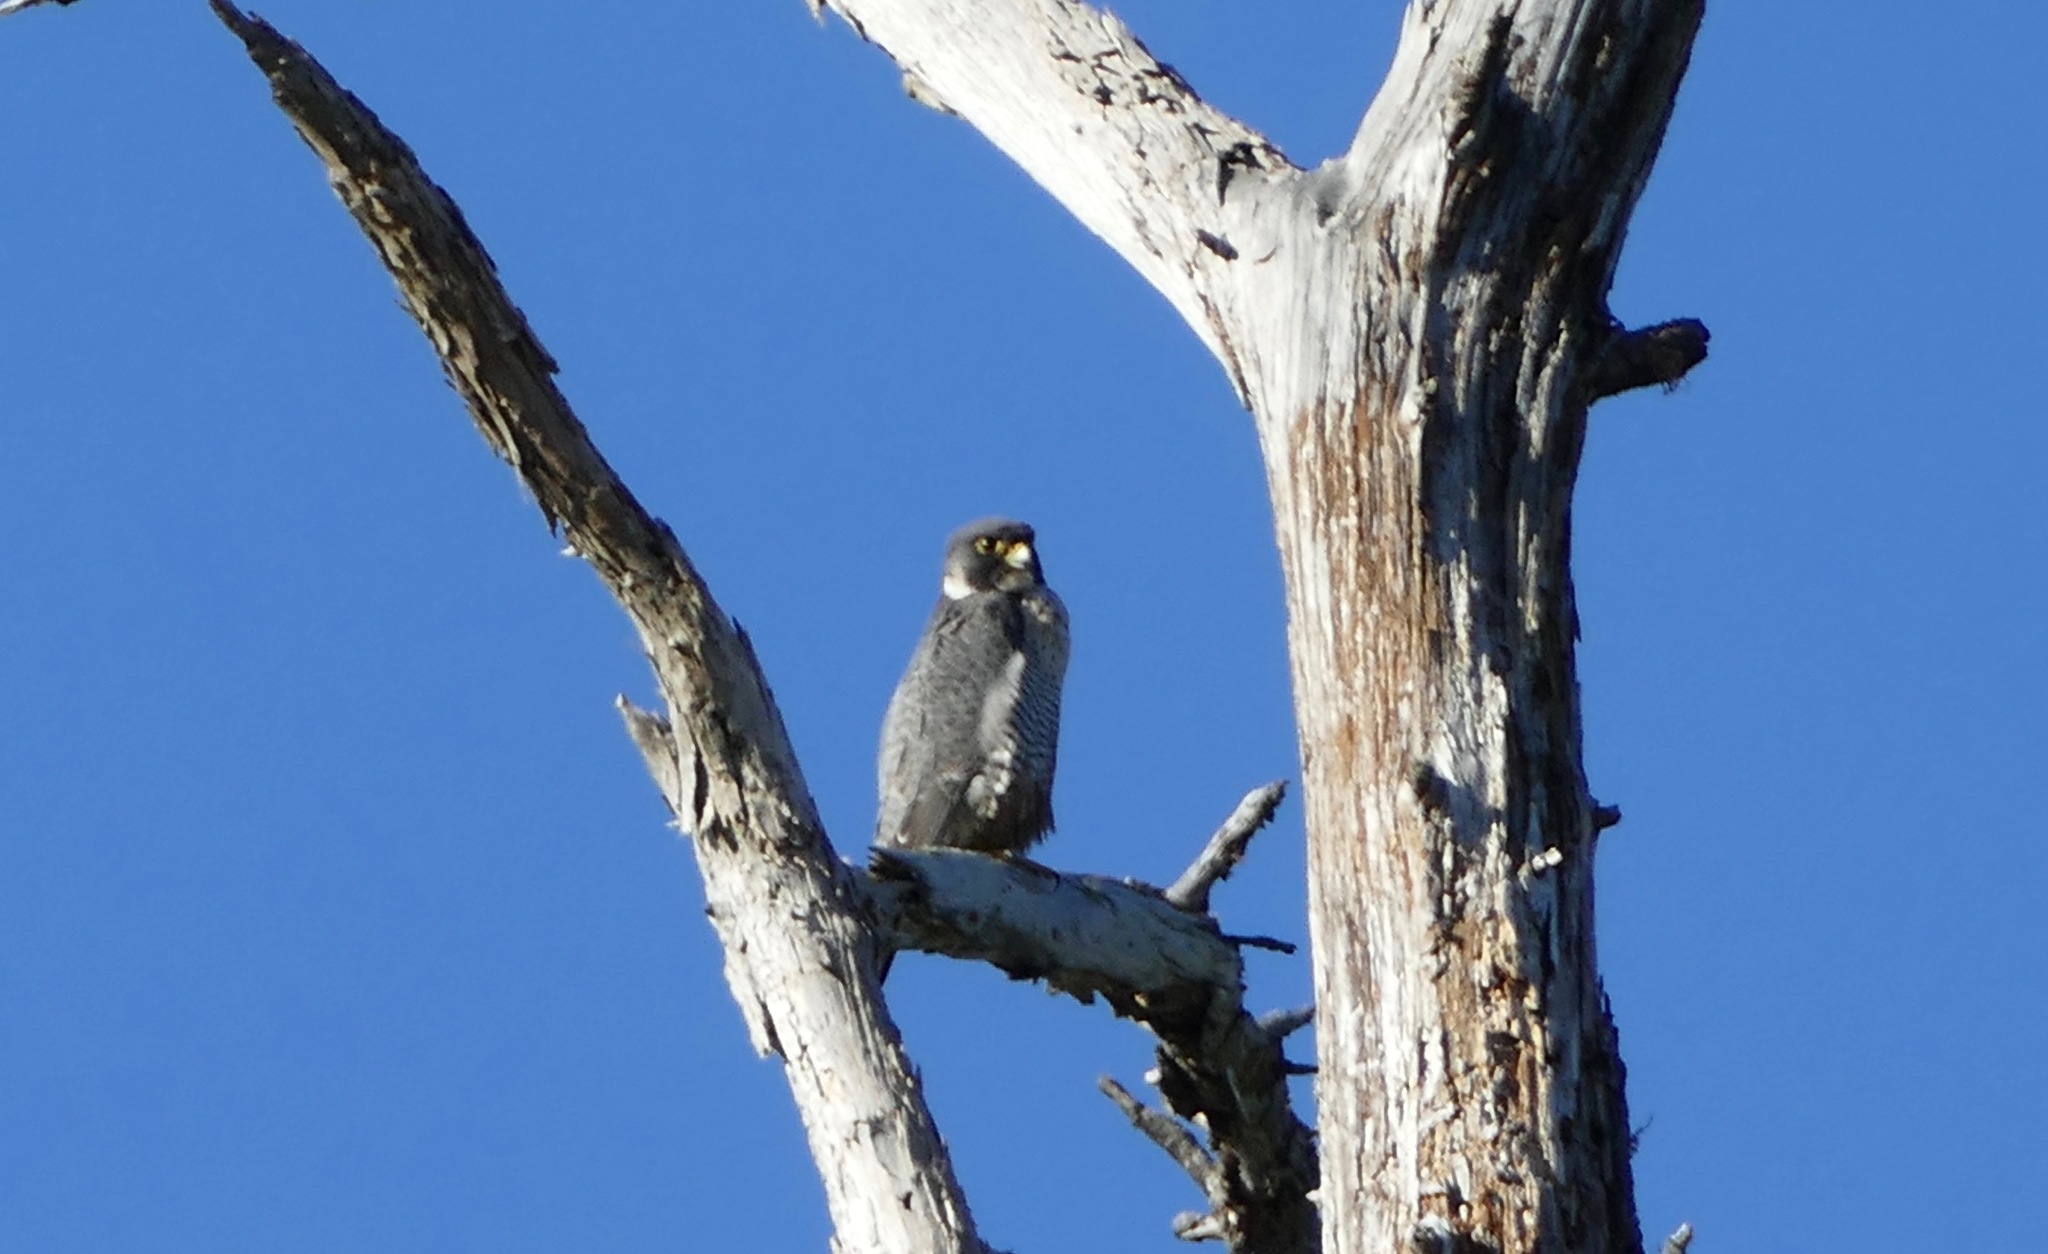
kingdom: Animalia
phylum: Chordata
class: Aves
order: Falconiformes
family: Falconidae
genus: Falco
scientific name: Falco peregrinus
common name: Peregrine falcon
